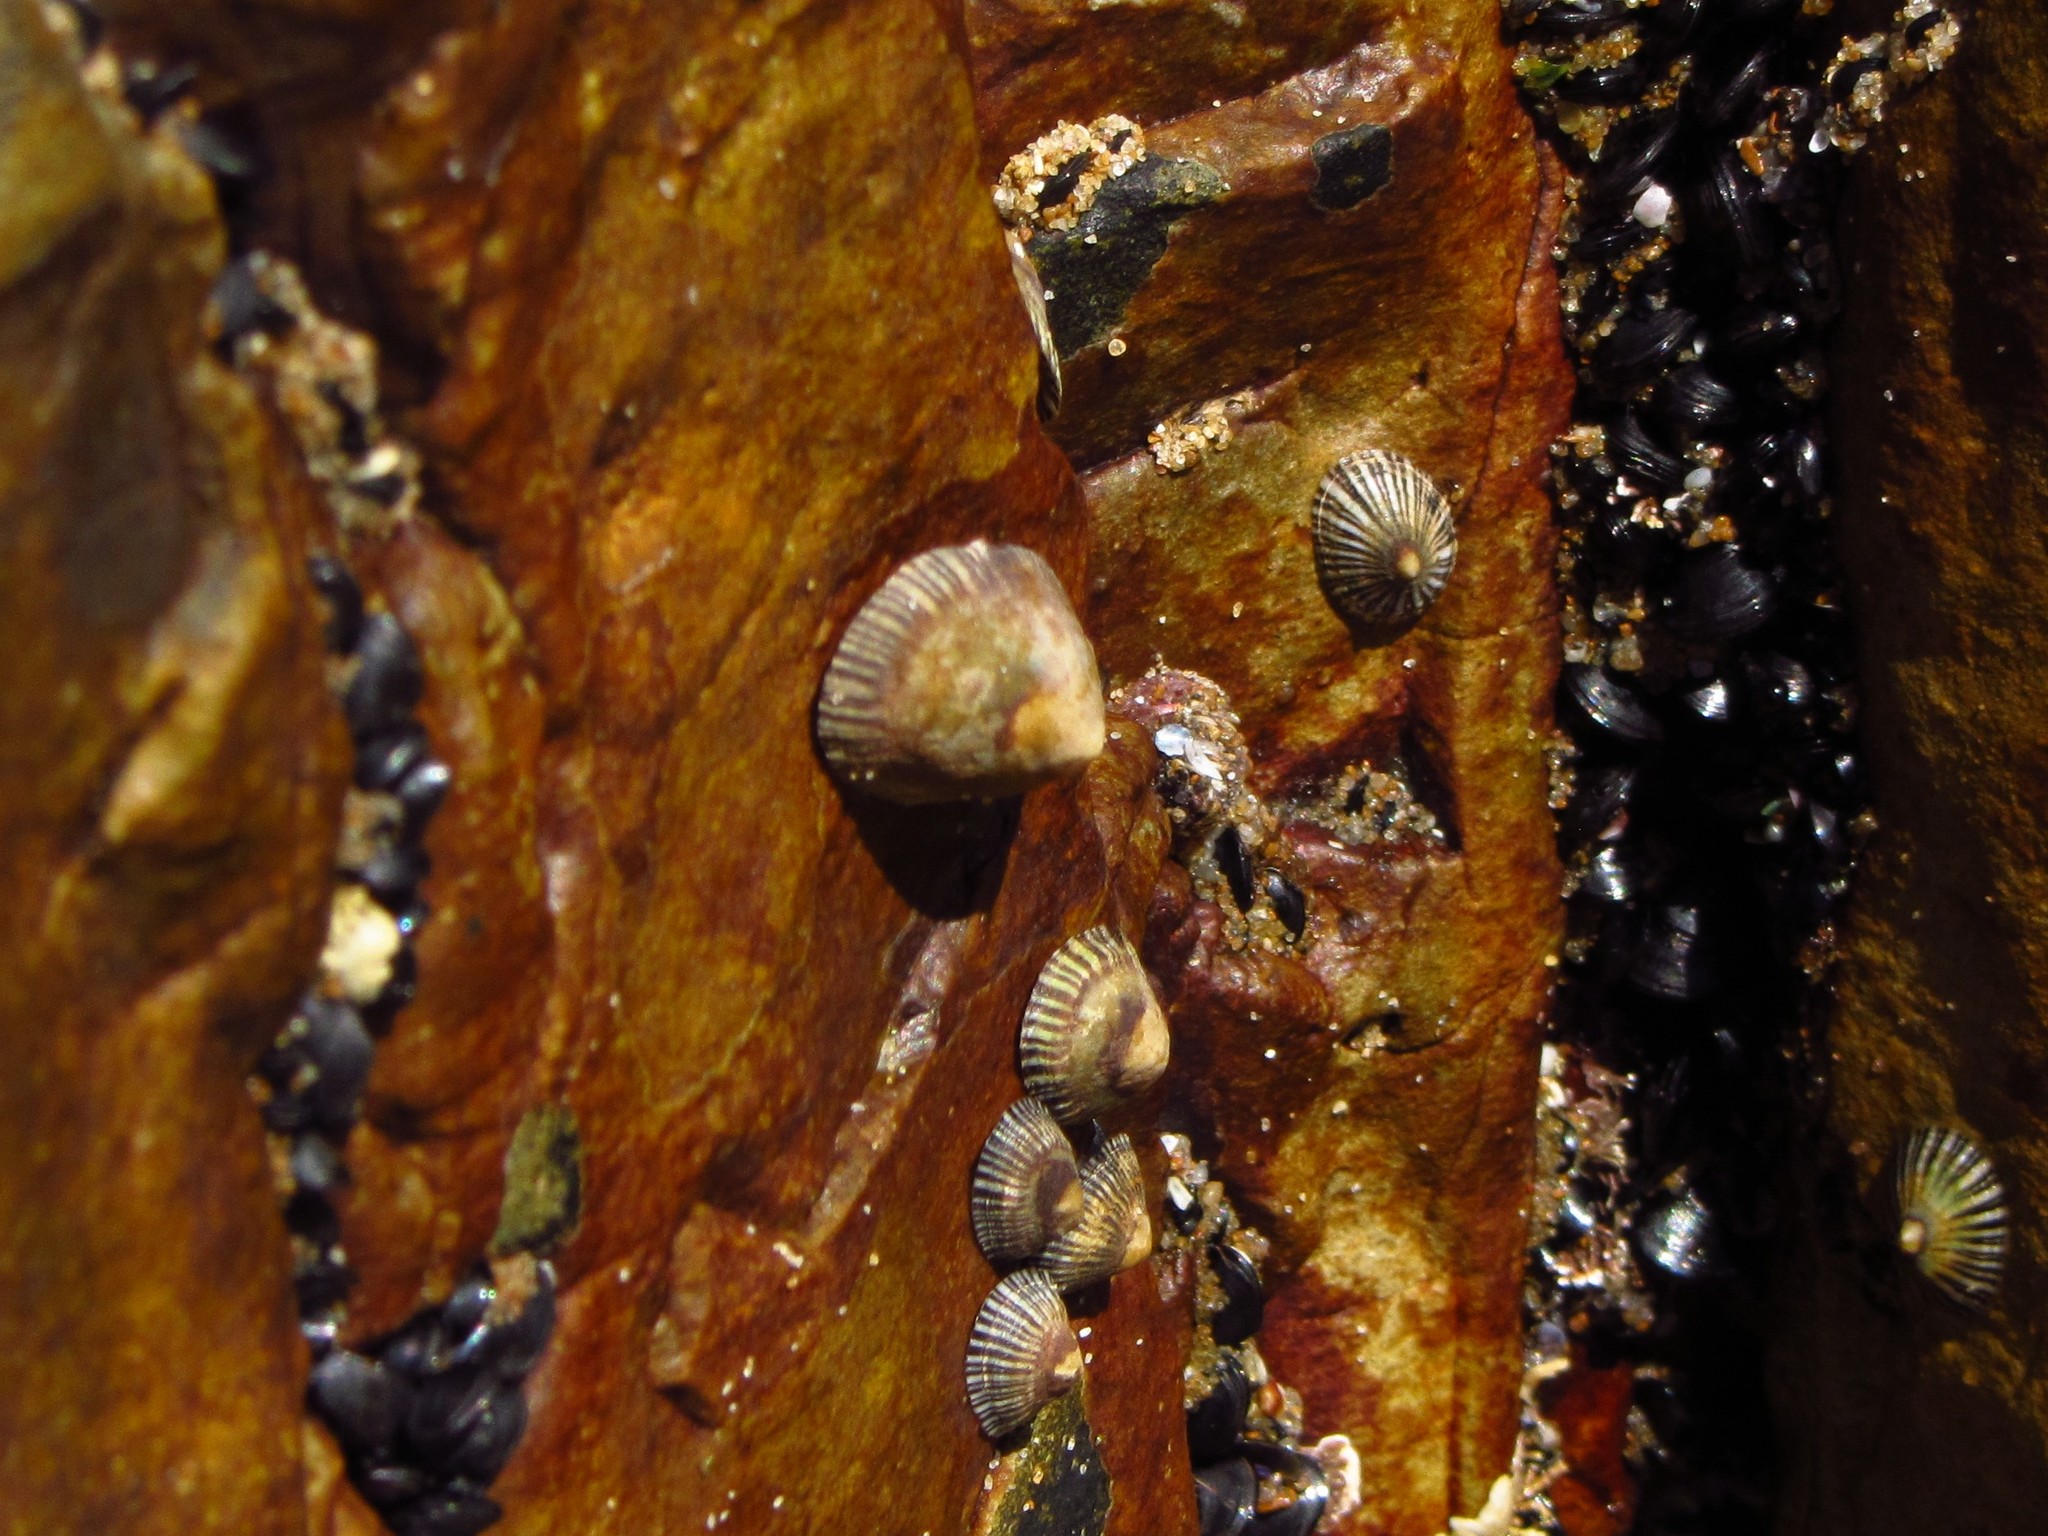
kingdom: Animalia
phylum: Mollusca
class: Gastropoda
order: Siphonariida
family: Siphonariidae
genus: Siphonaria
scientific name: Siphonaria funiculata
